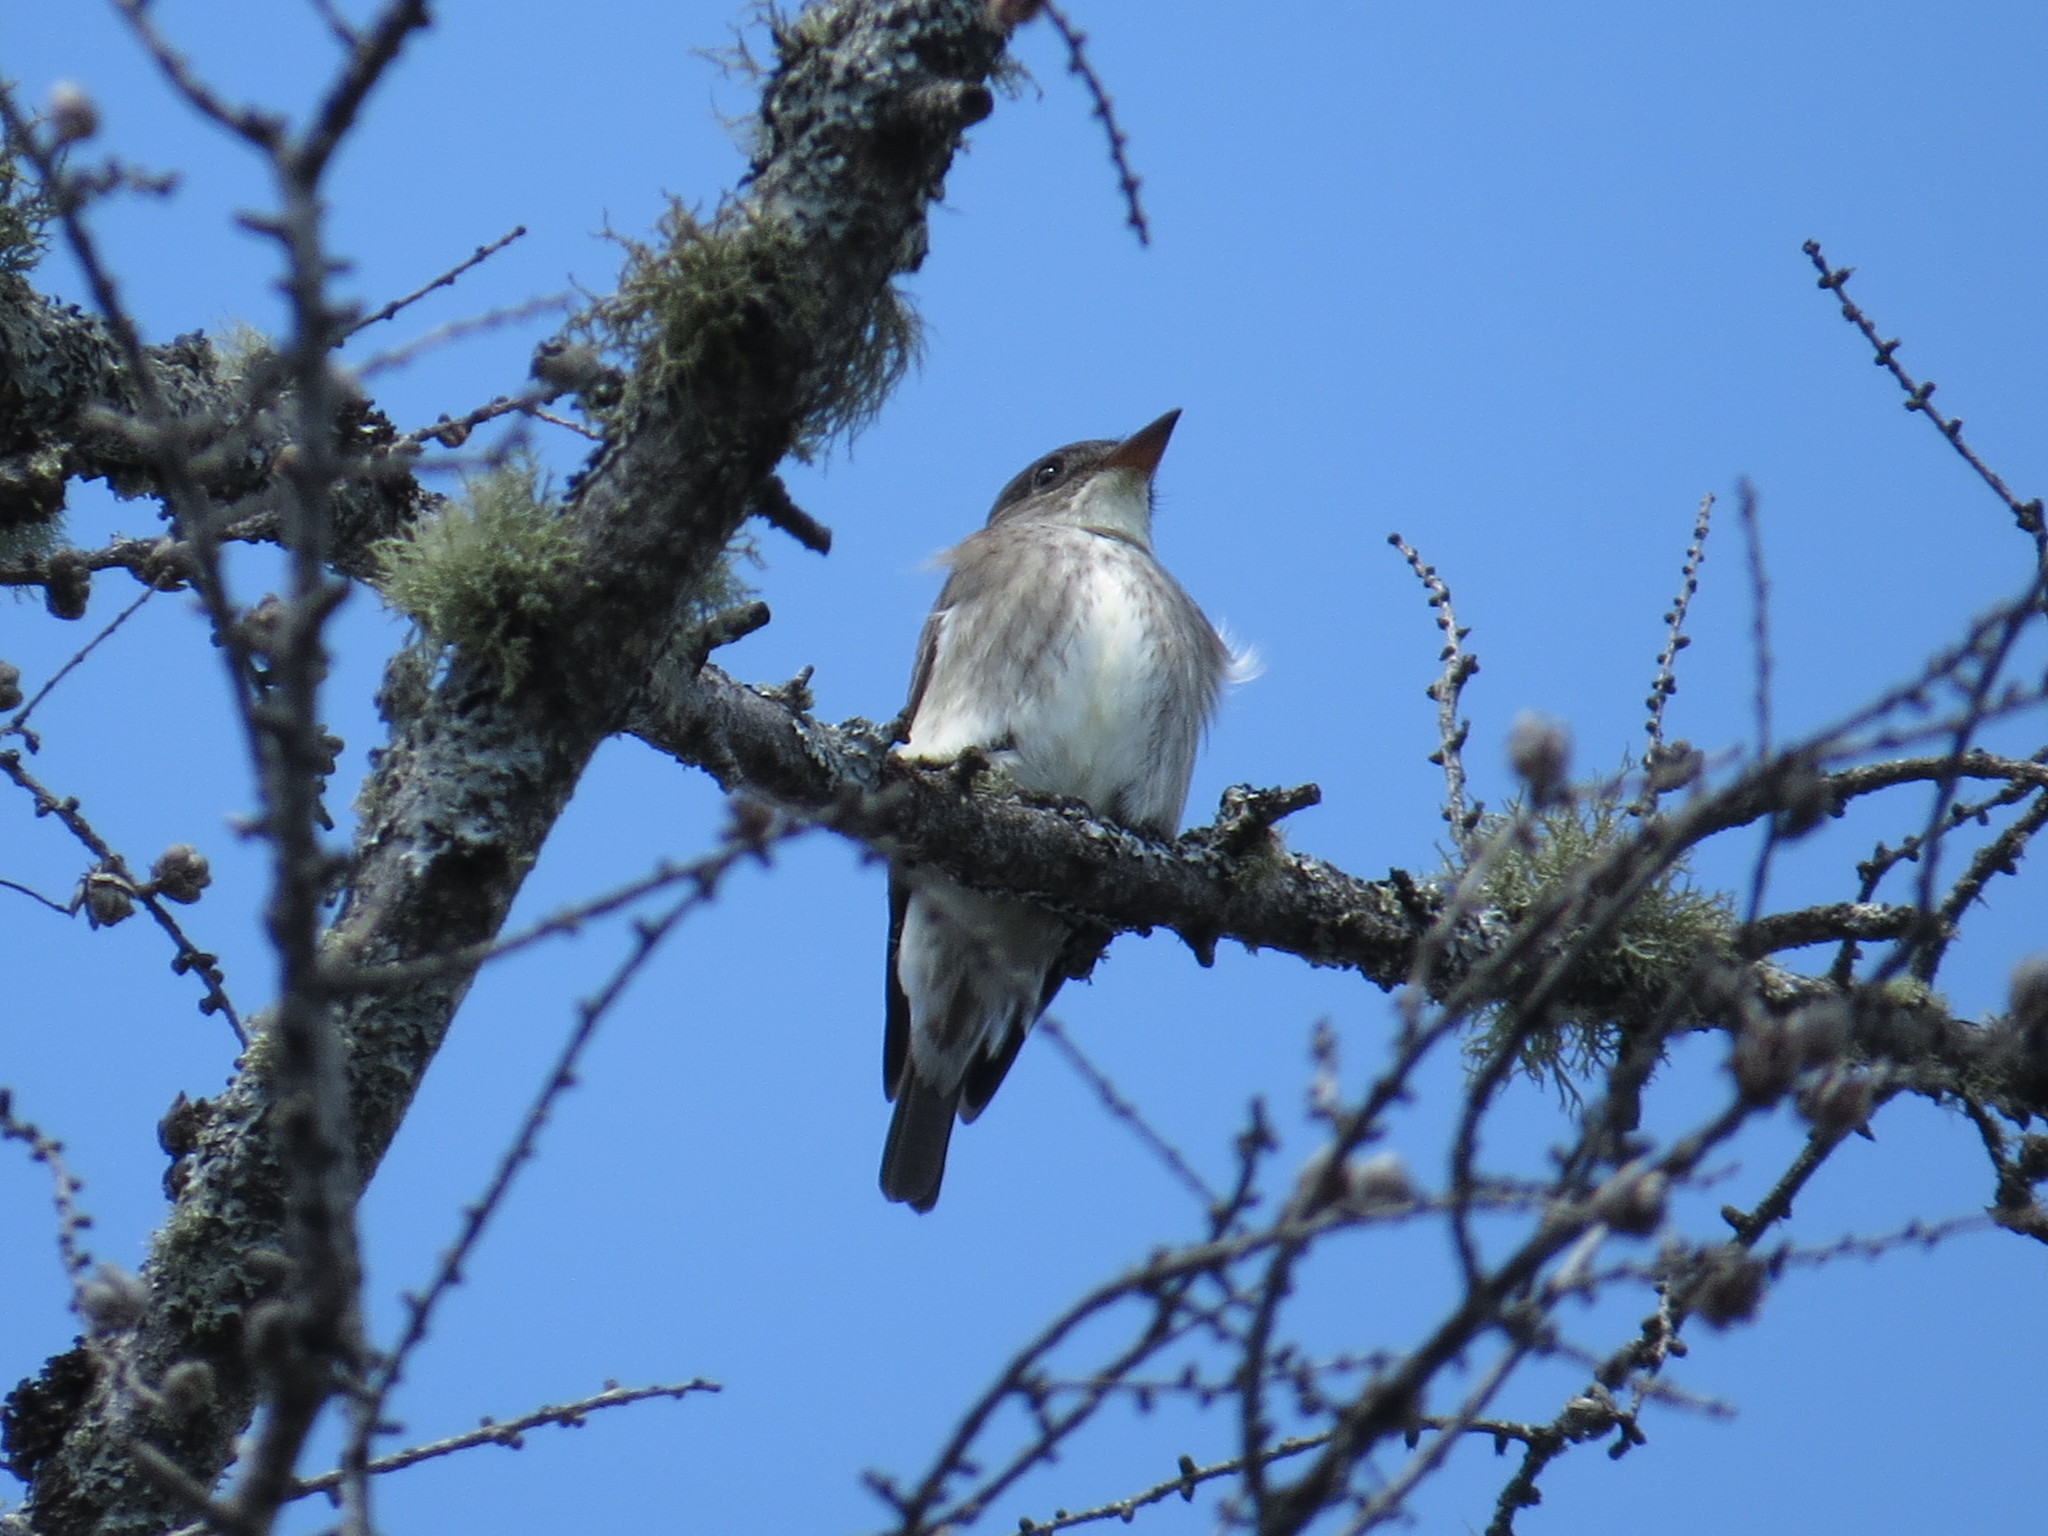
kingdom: Animalia
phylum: Chordata
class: Aves
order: Passeriformes
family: Tyrannidae
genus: Contopus
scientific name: Contopus cooperi
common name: Olive-sided flycatcher
